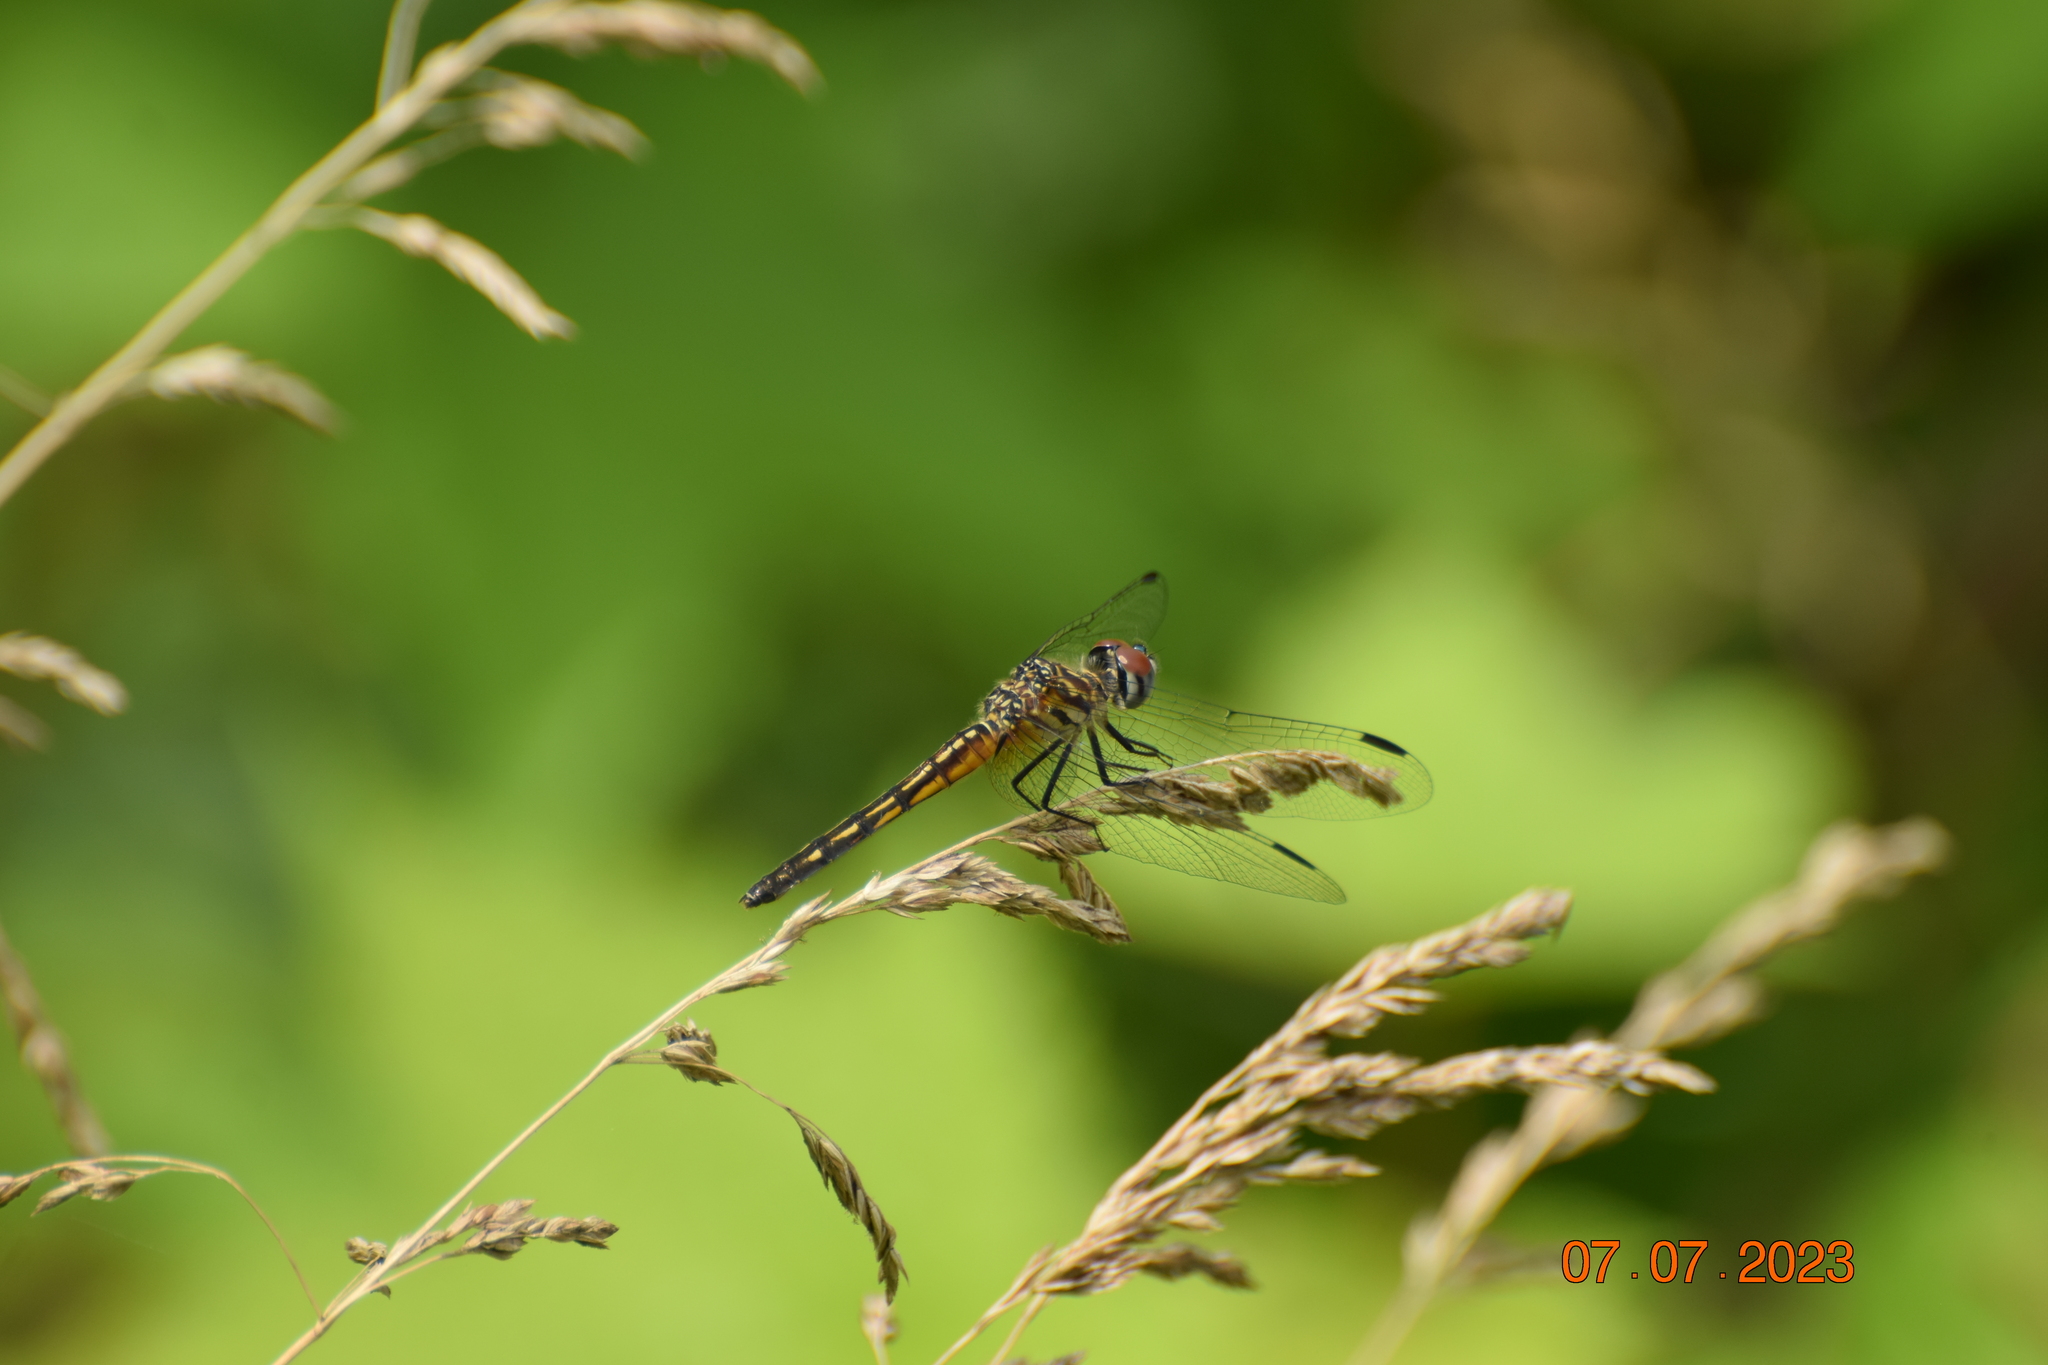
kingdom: Animalia
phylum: Arthropoda
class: Insecta
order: Odonata
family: Libellulidae
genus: Pachydiplax
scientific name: Pachydiplax longipennis
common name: Blue dasher
